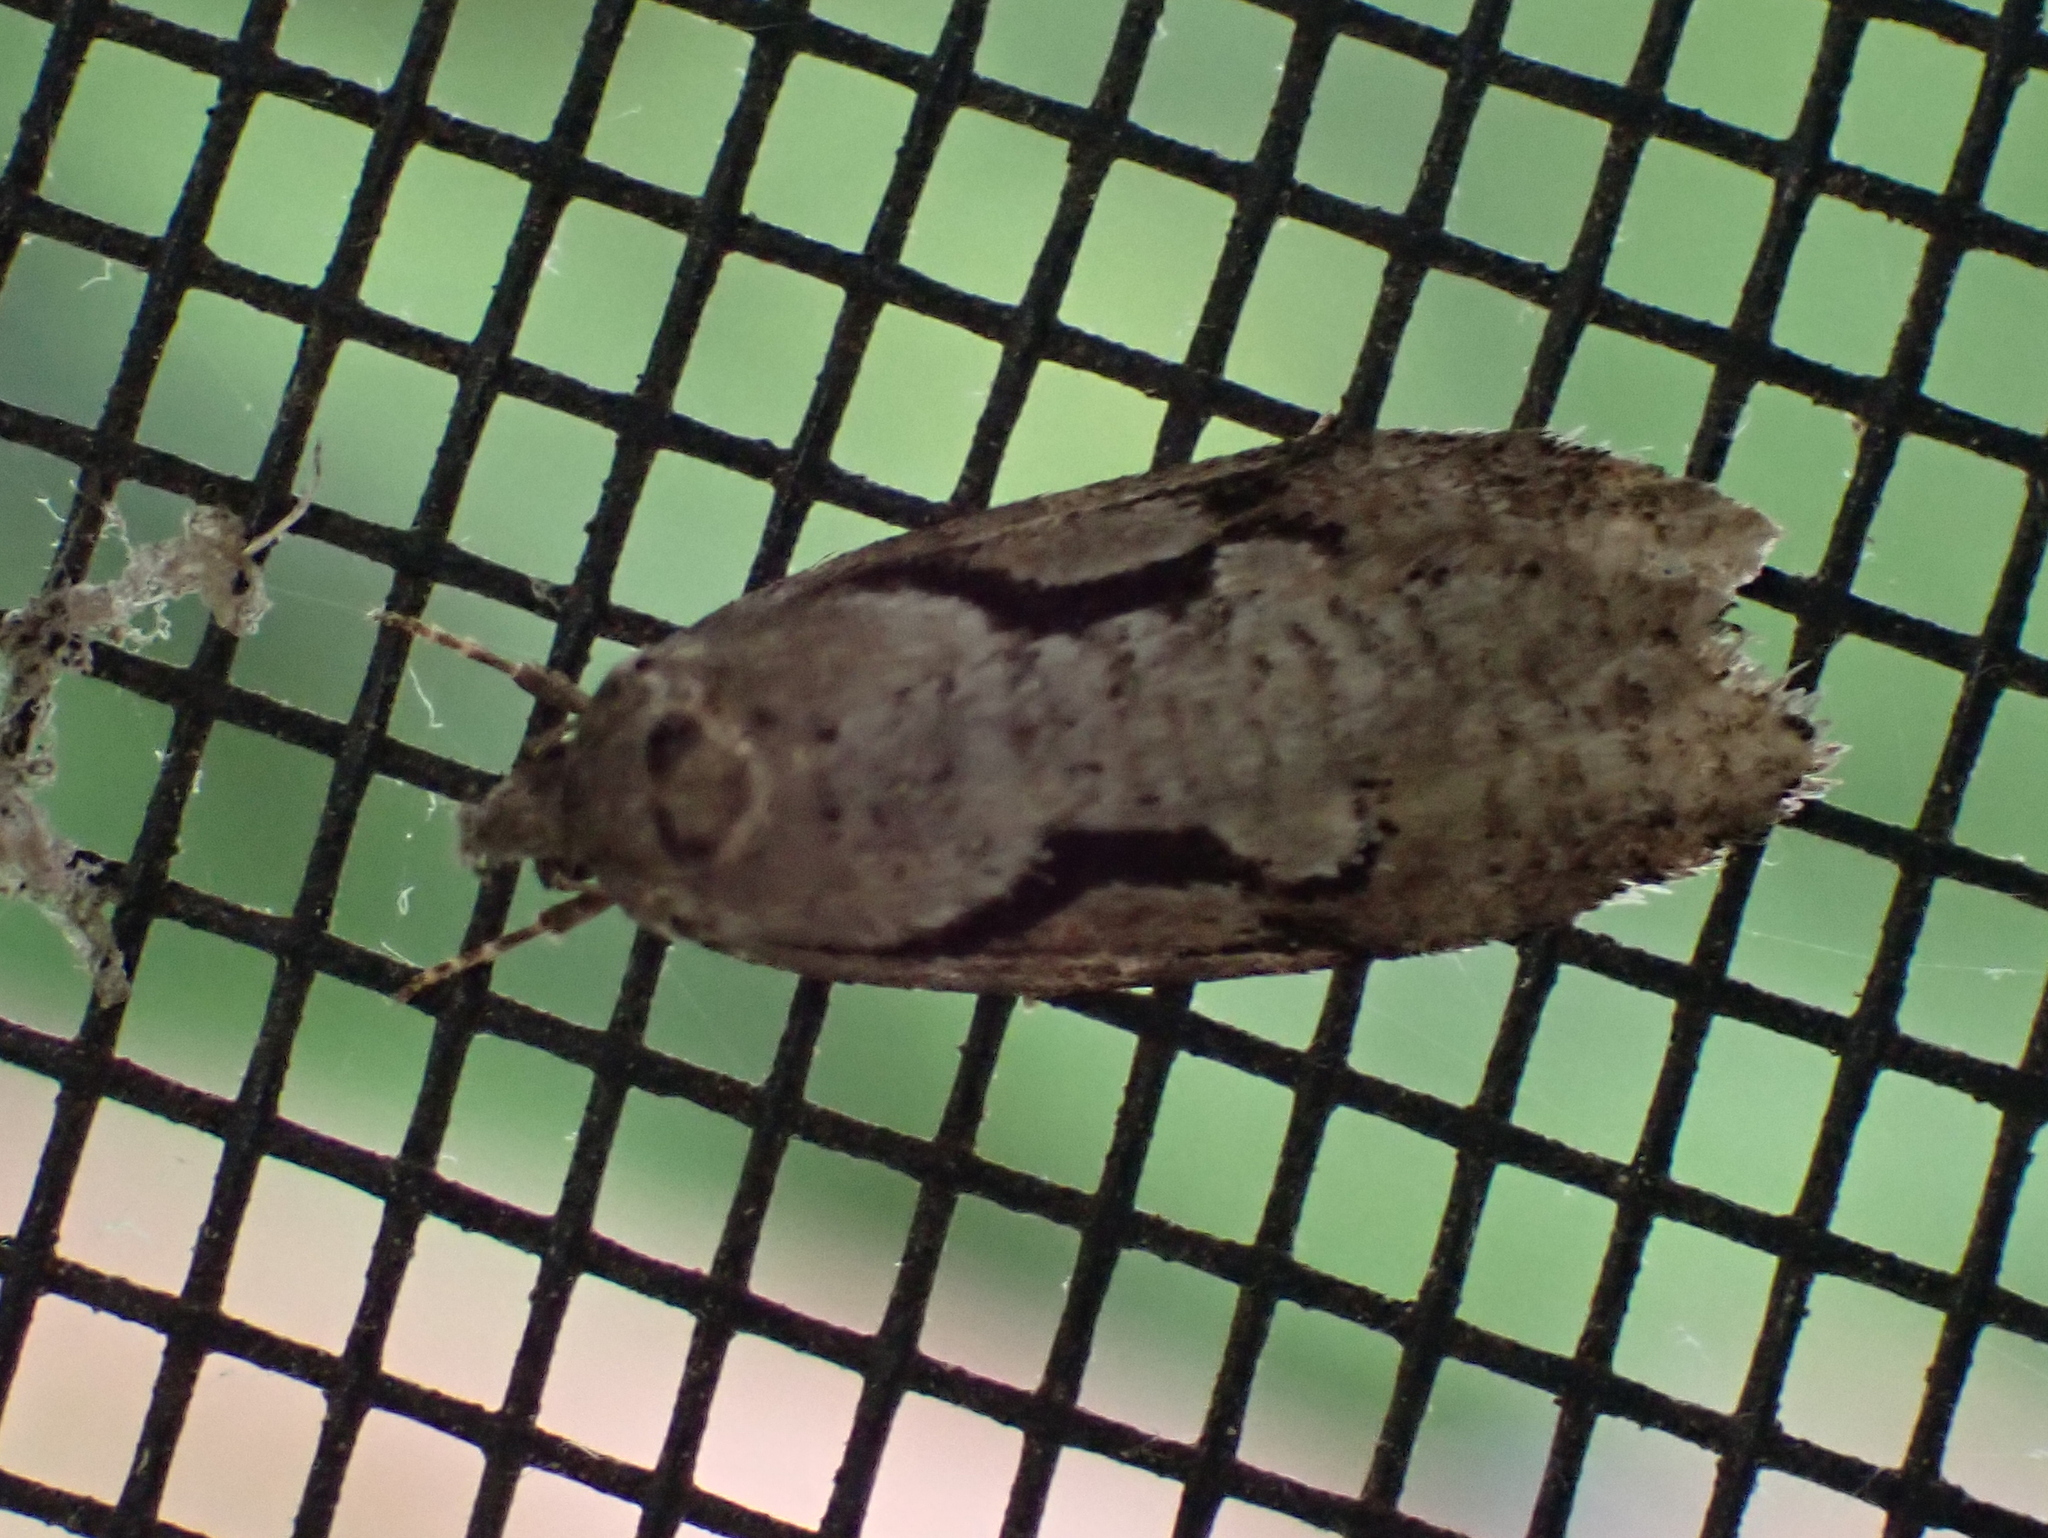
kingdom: Animalia
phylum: Arthropoda
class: Insecta
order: Lepidoptera
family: Depressariidae
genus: Semioscopis
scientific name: Semioscopis packardella
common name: Packard's concealer moth
